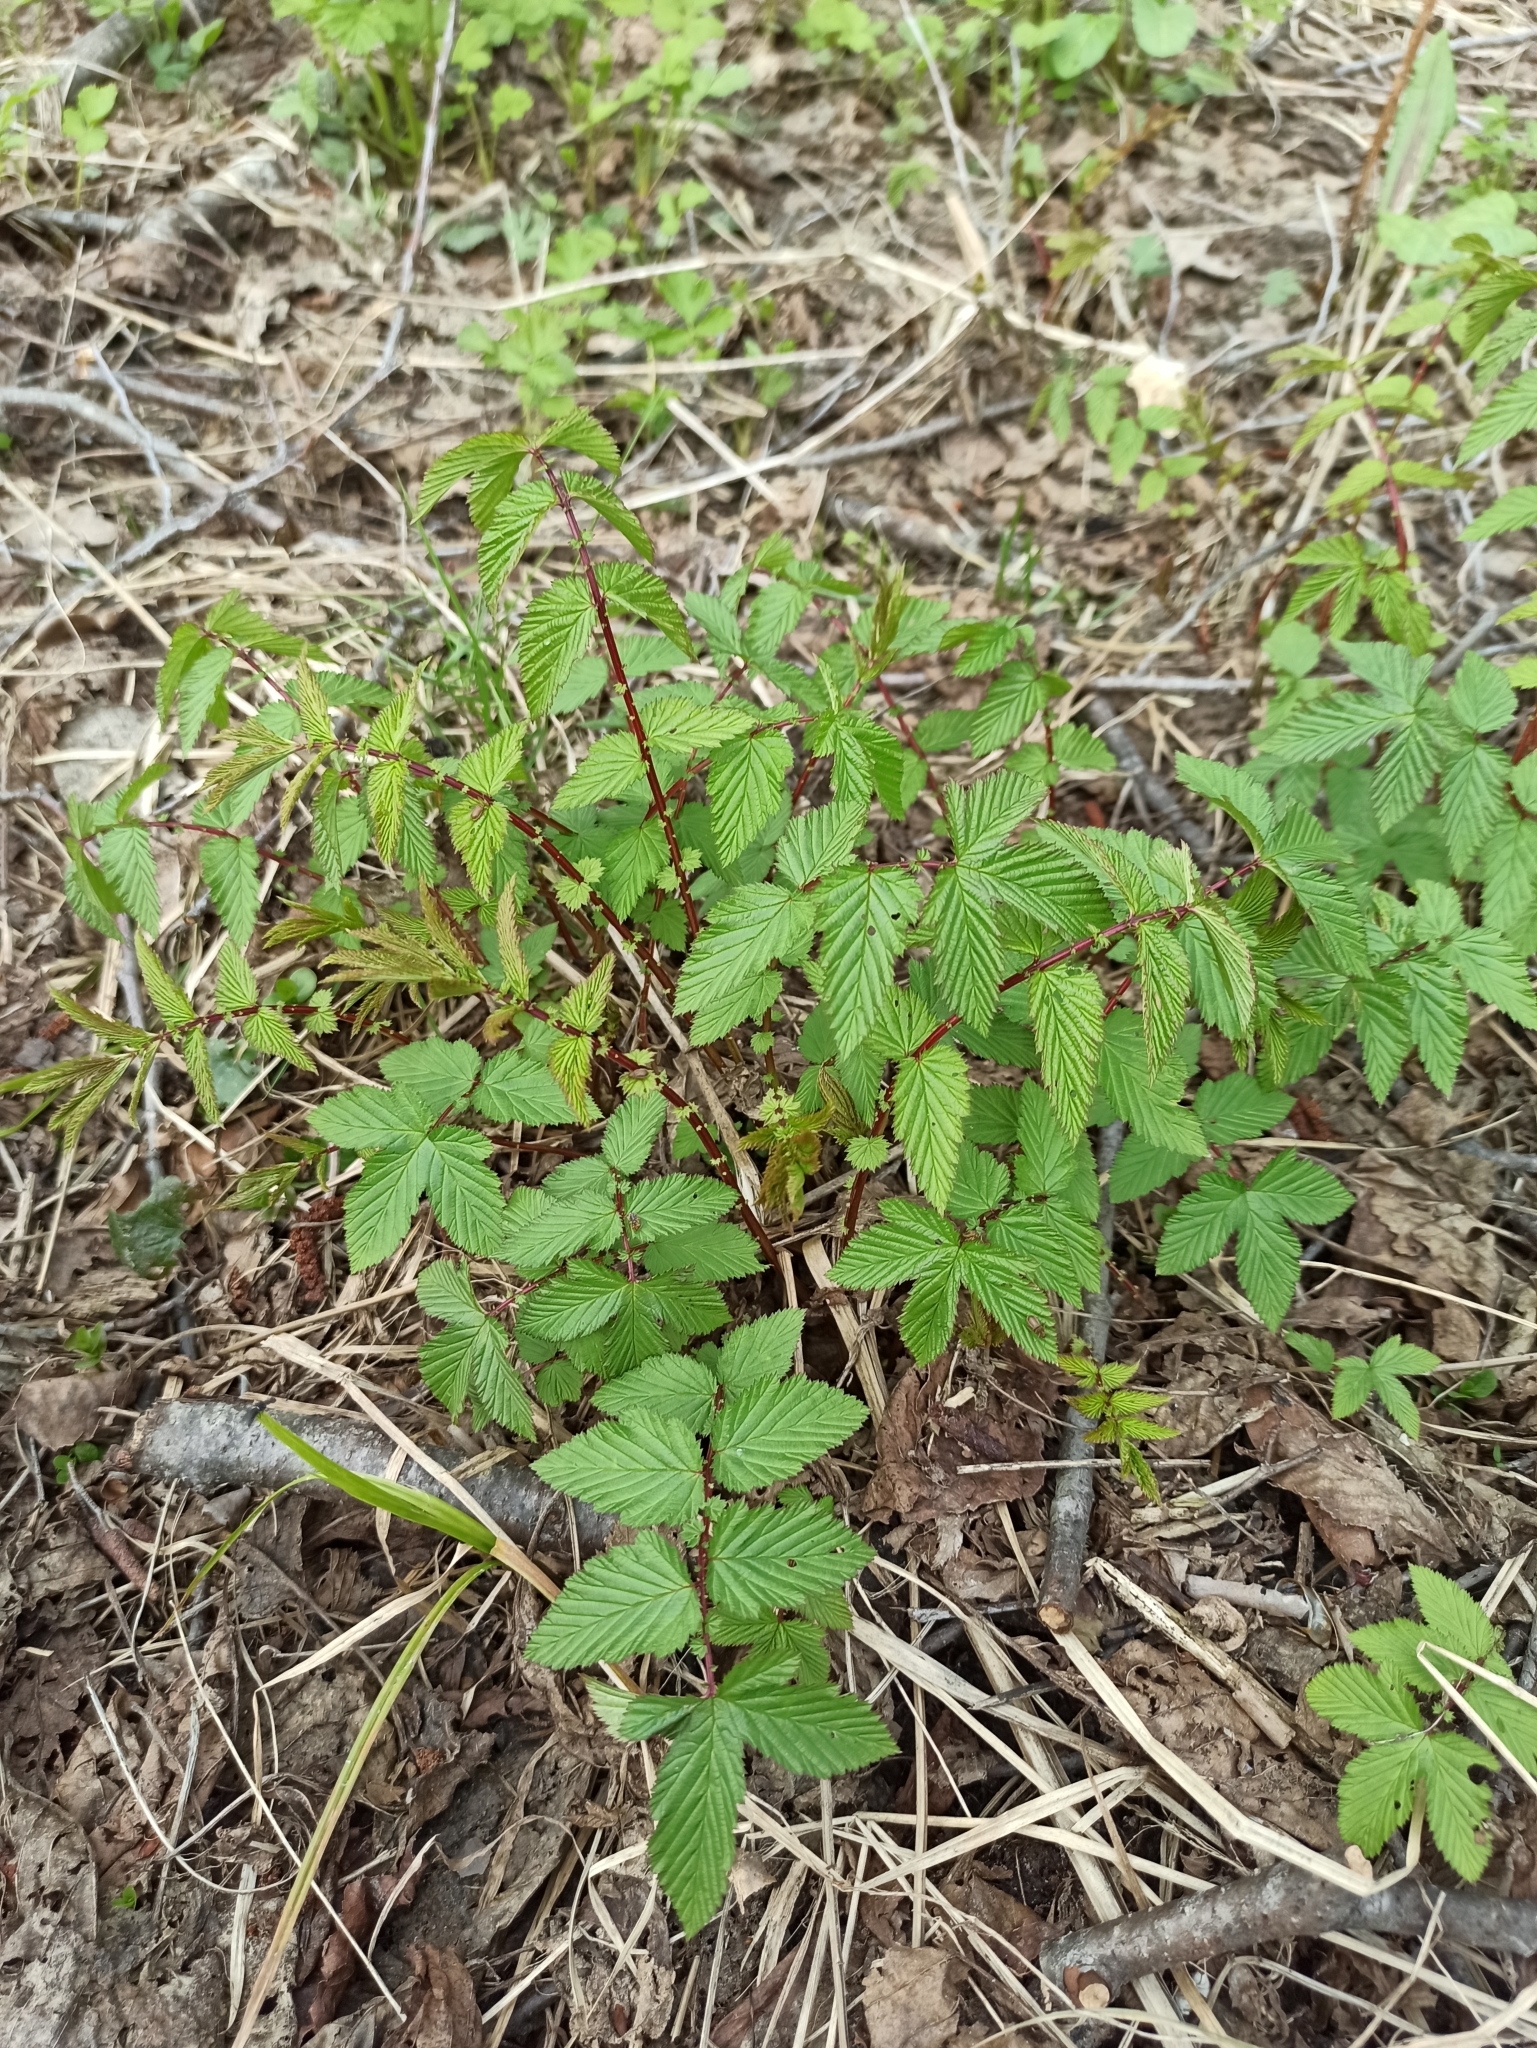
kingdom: Plantae
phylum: Tracheophyta
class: Magnoliopsida
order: Rosales
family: Rosaceae
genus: Filipendula
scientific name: Filipendula ulmaria
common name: Meadowsweet
